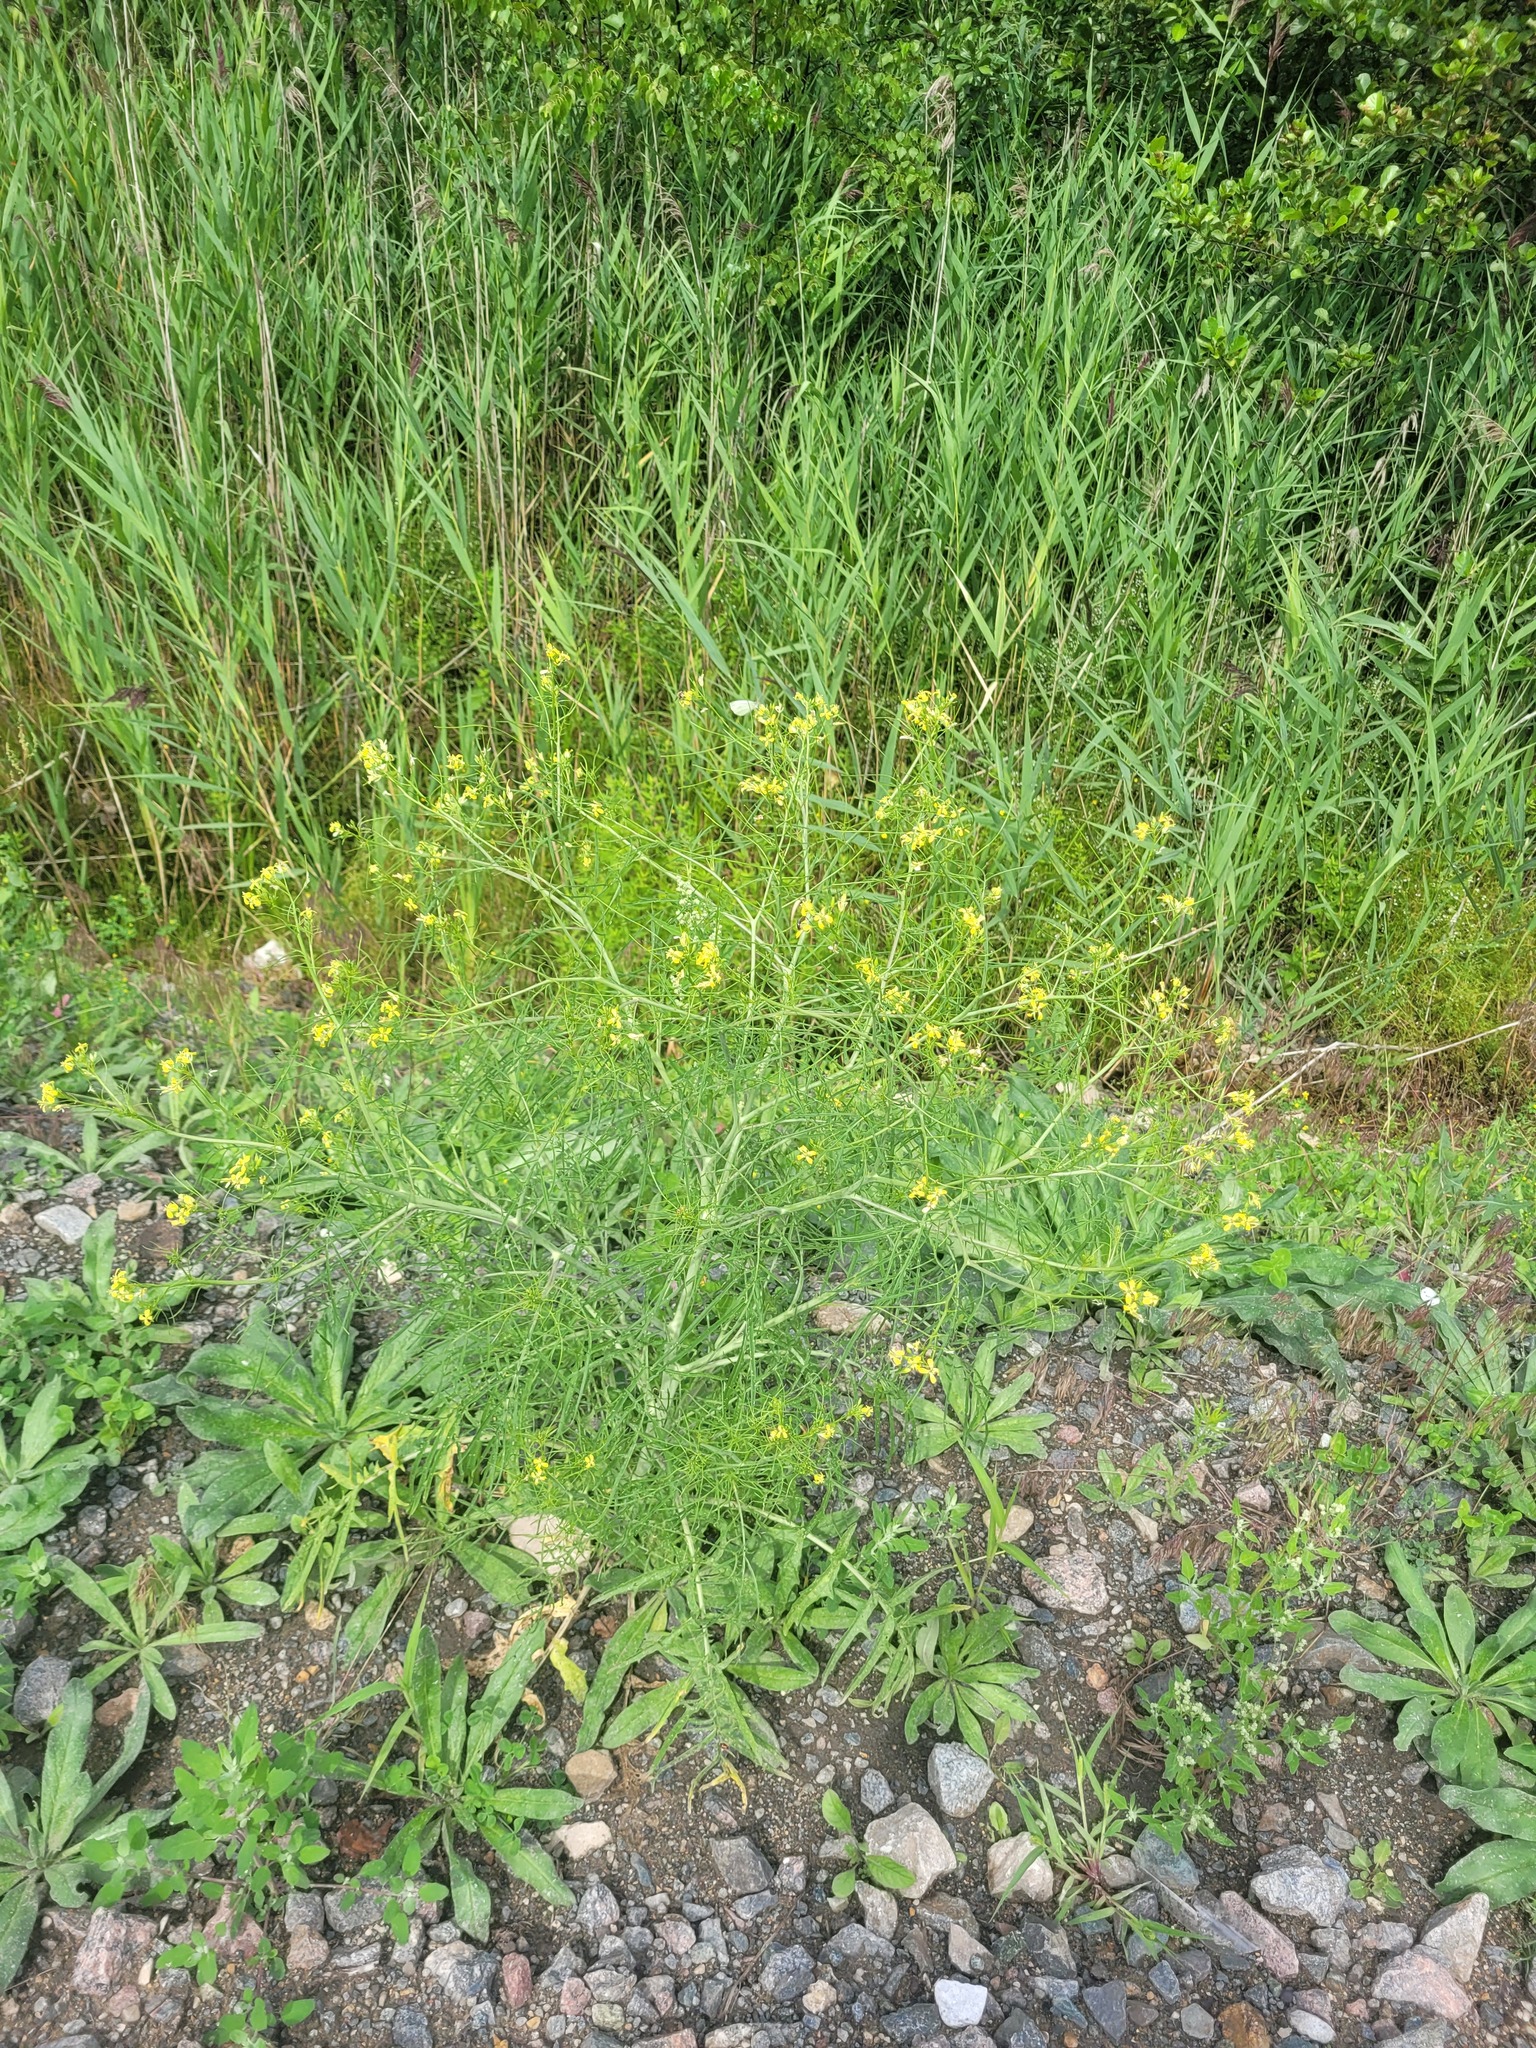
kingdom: Plantae
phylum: Tracheophyta
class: Magnoliopsida
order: Brassicales
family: Brassicaceae
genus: Sisymbrium
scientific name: Sisymbrium altissimum
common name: Tall rocket
